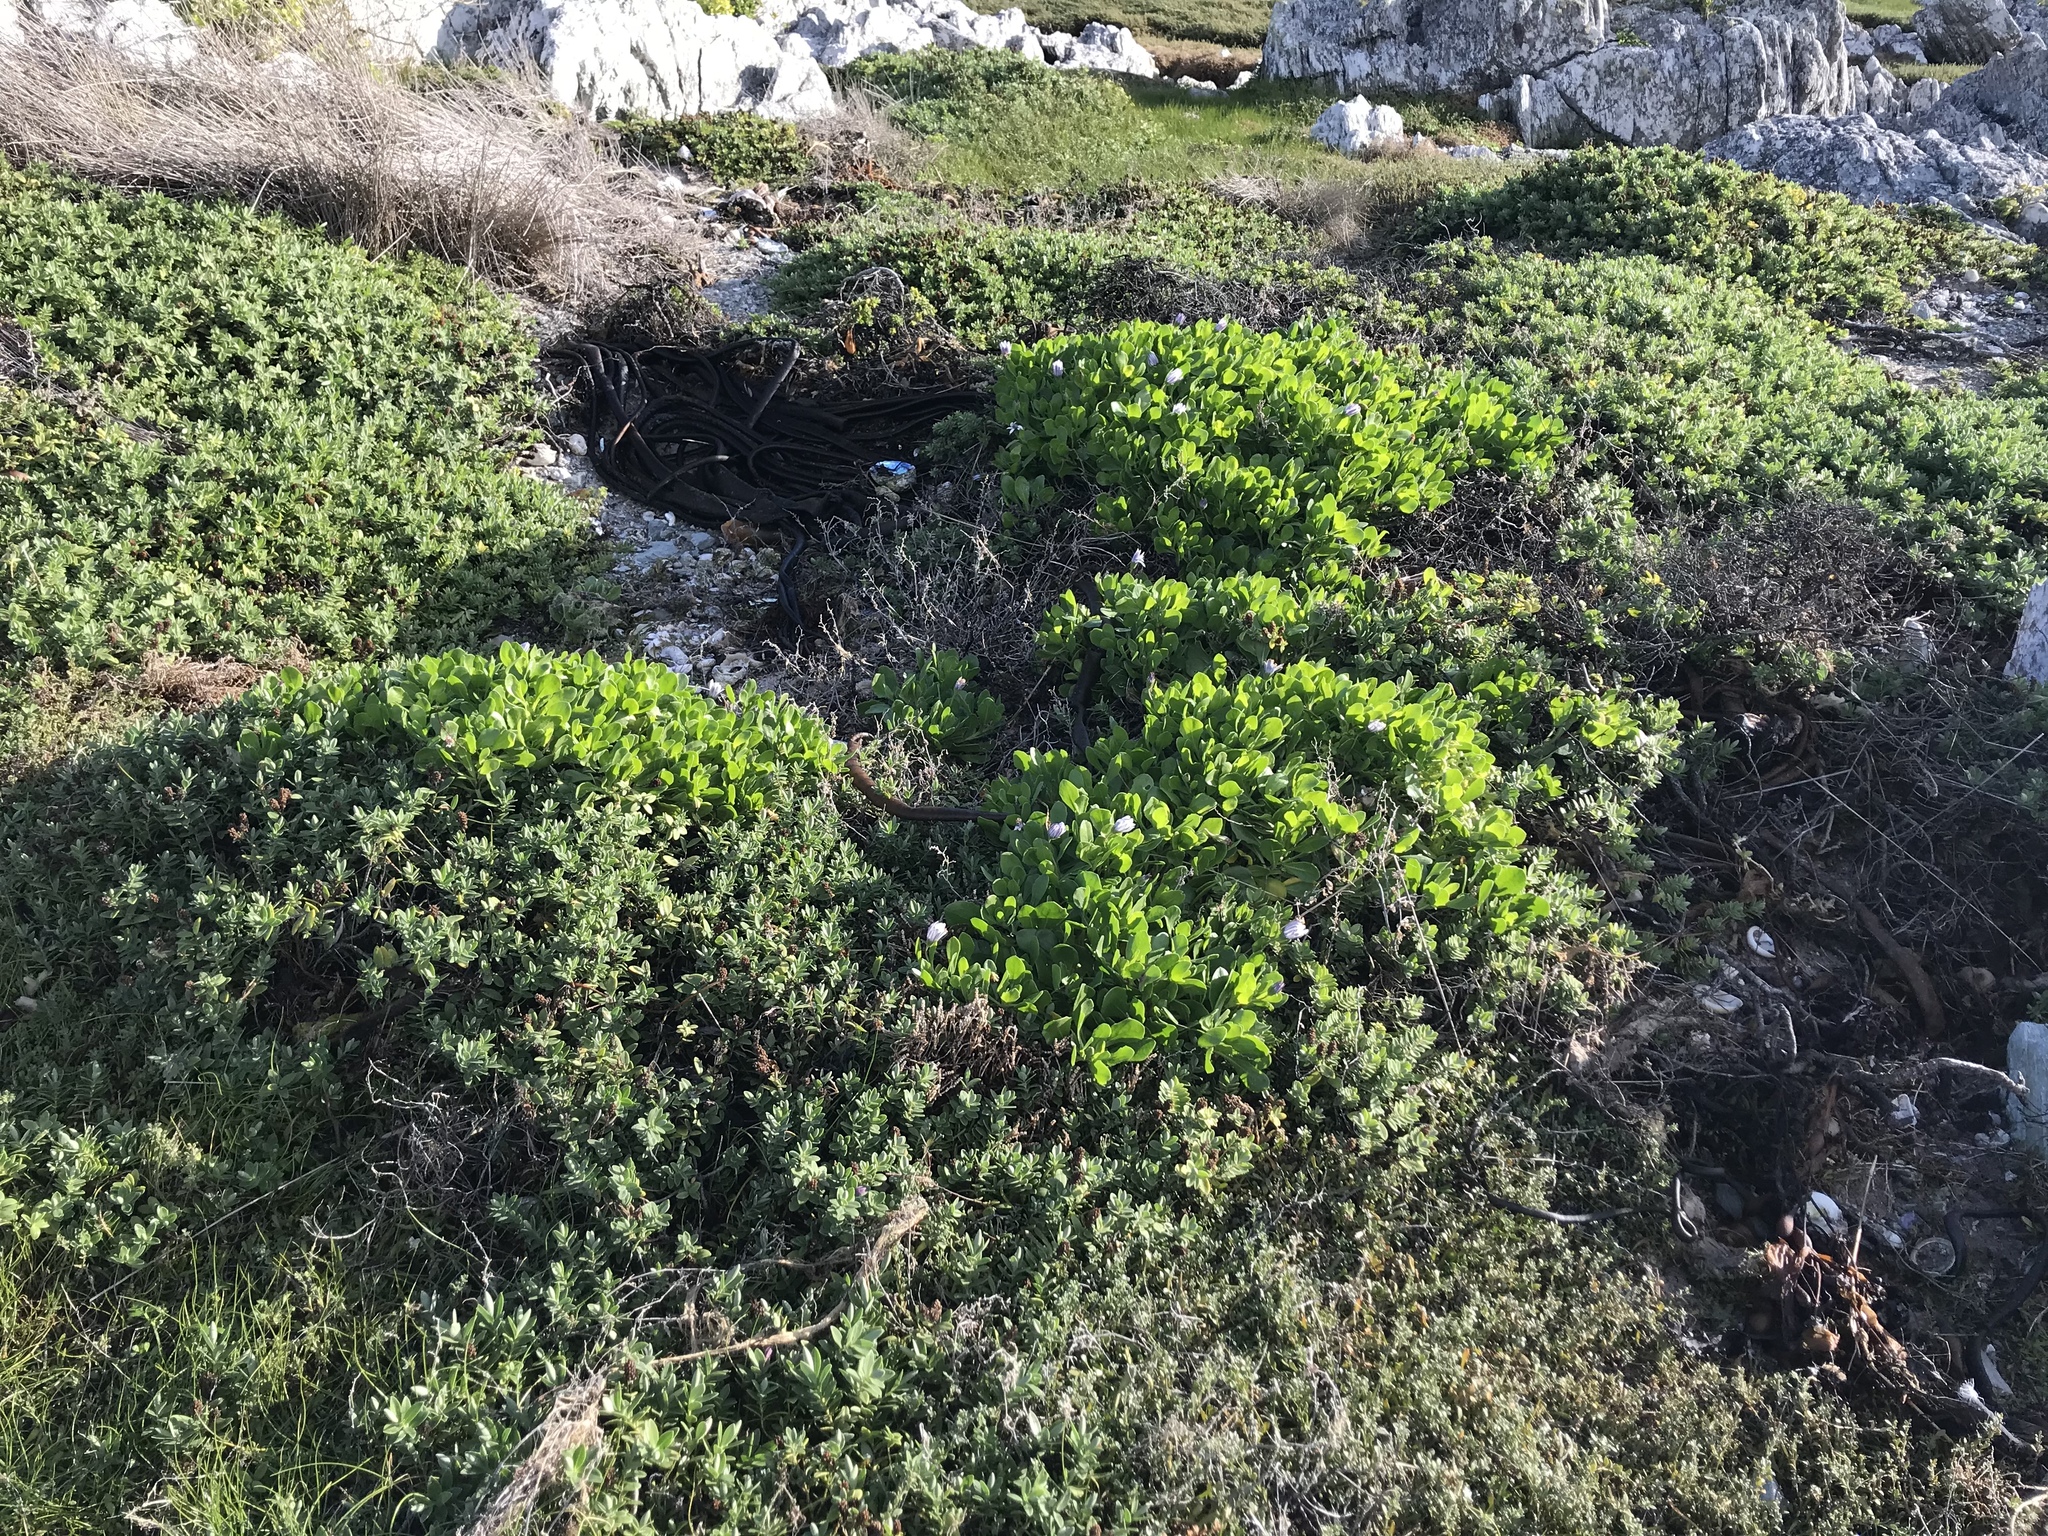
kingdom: Plantae
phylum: Tracheophyta
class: Magnoliopsida
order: Asterales
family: Asteraceae
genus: Dimorphotheca
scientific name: Dimorphotheca fruticosa
